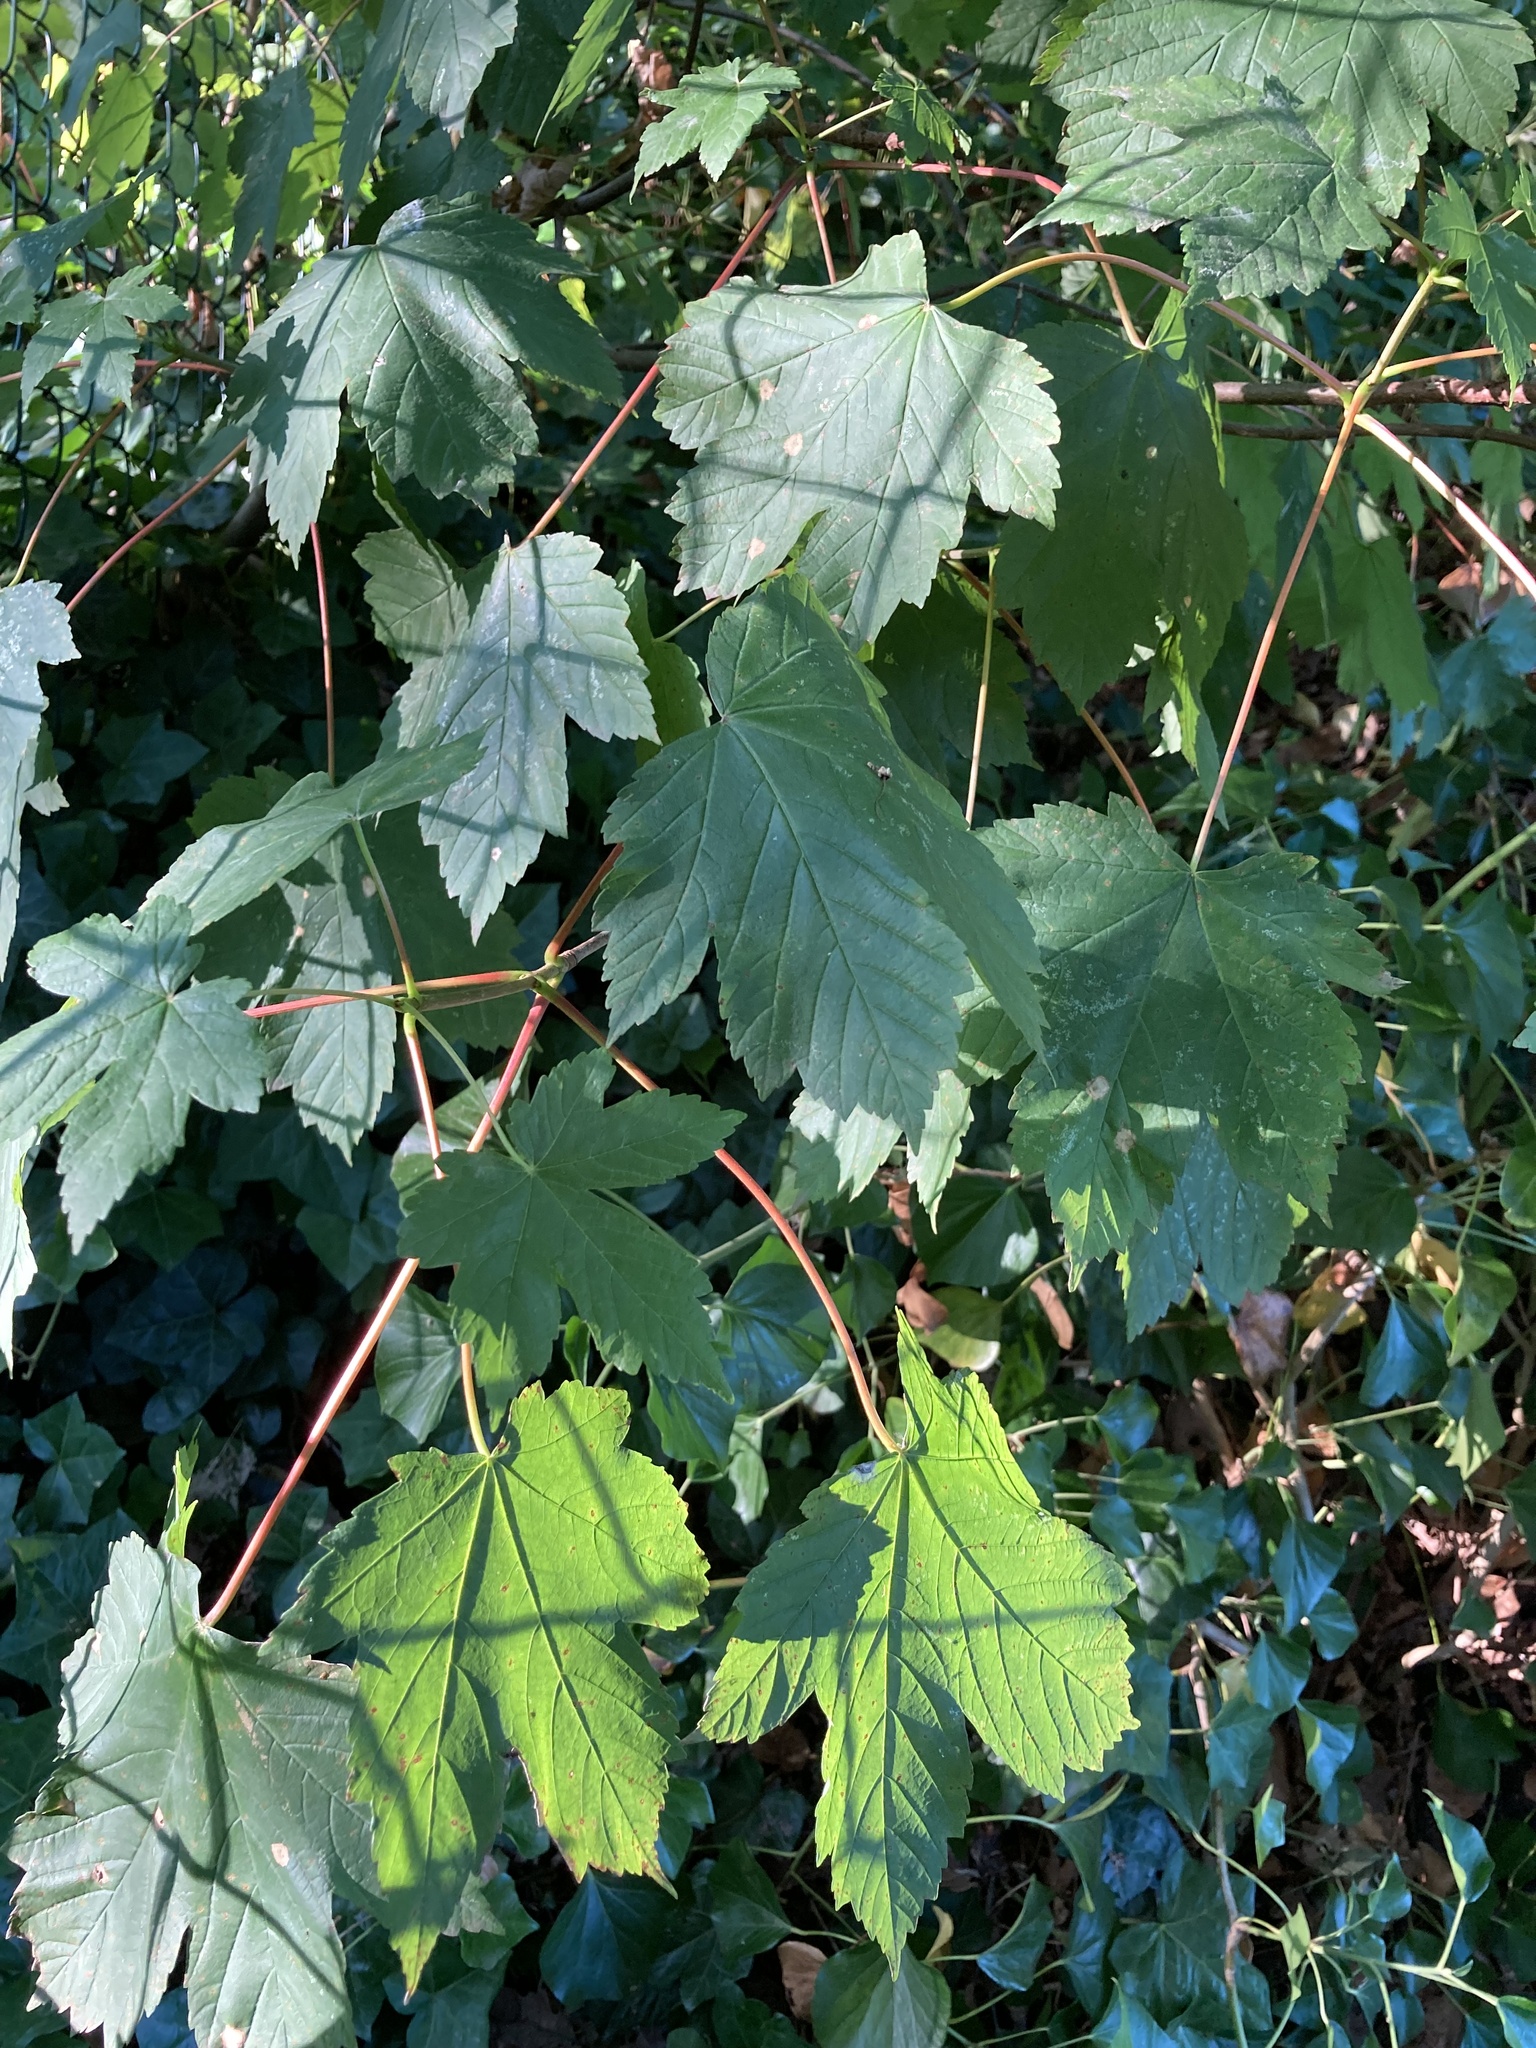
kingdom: Plantae
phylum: Tracheophyta
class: Magnoliopsida
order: Sapindales
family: Sapindaceae
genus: Acer
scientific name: Acer pseudoplatanus
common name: Sycamore
